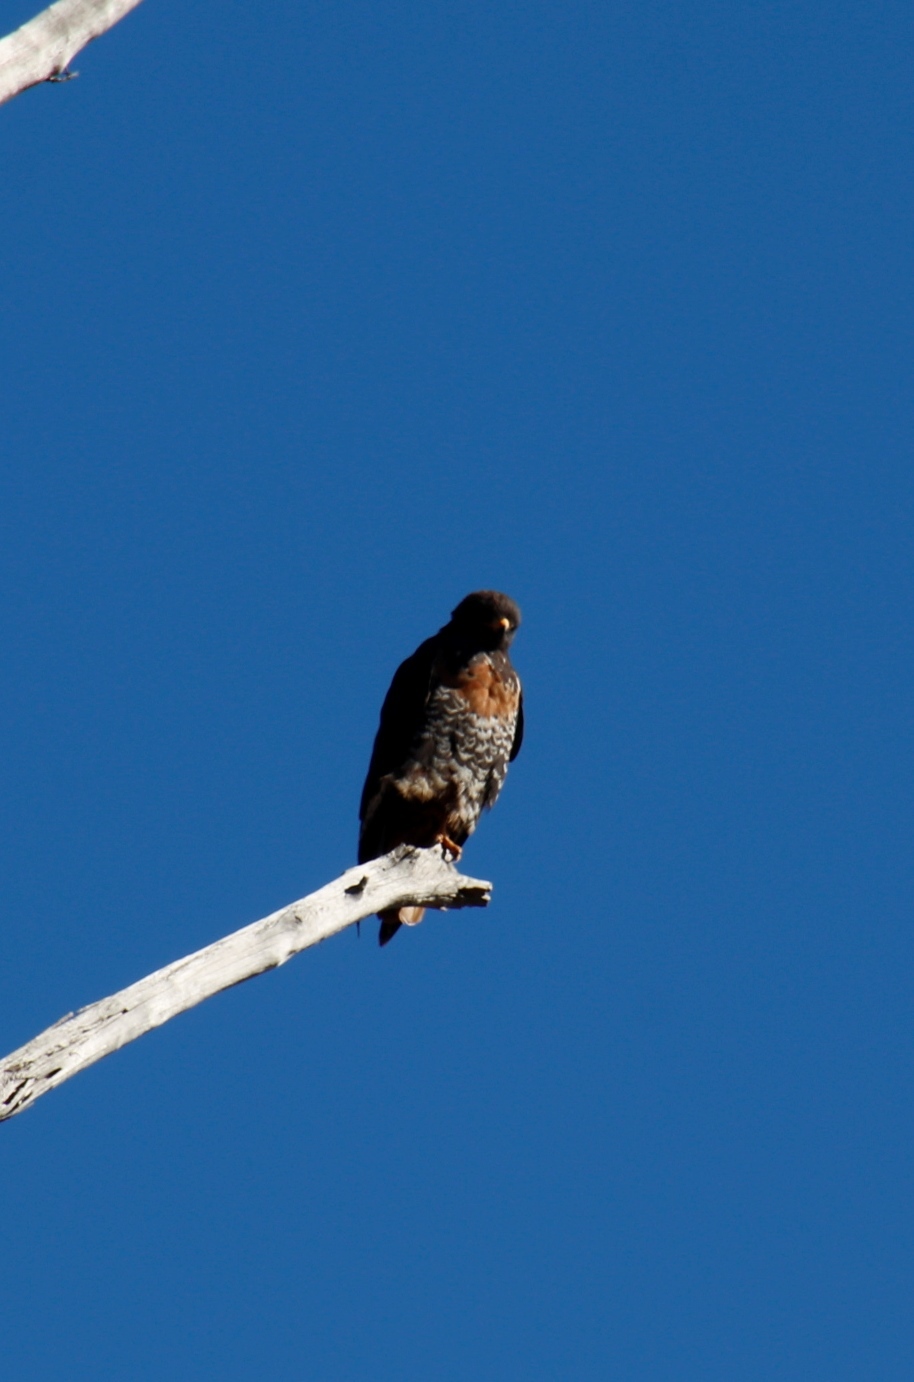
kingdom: Animalia
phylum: Chordata
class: Aves
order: Accipitriformes
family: Accipitridae
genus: Buteo
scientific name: Buteo rufofuscus
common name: Jackal buzzard
